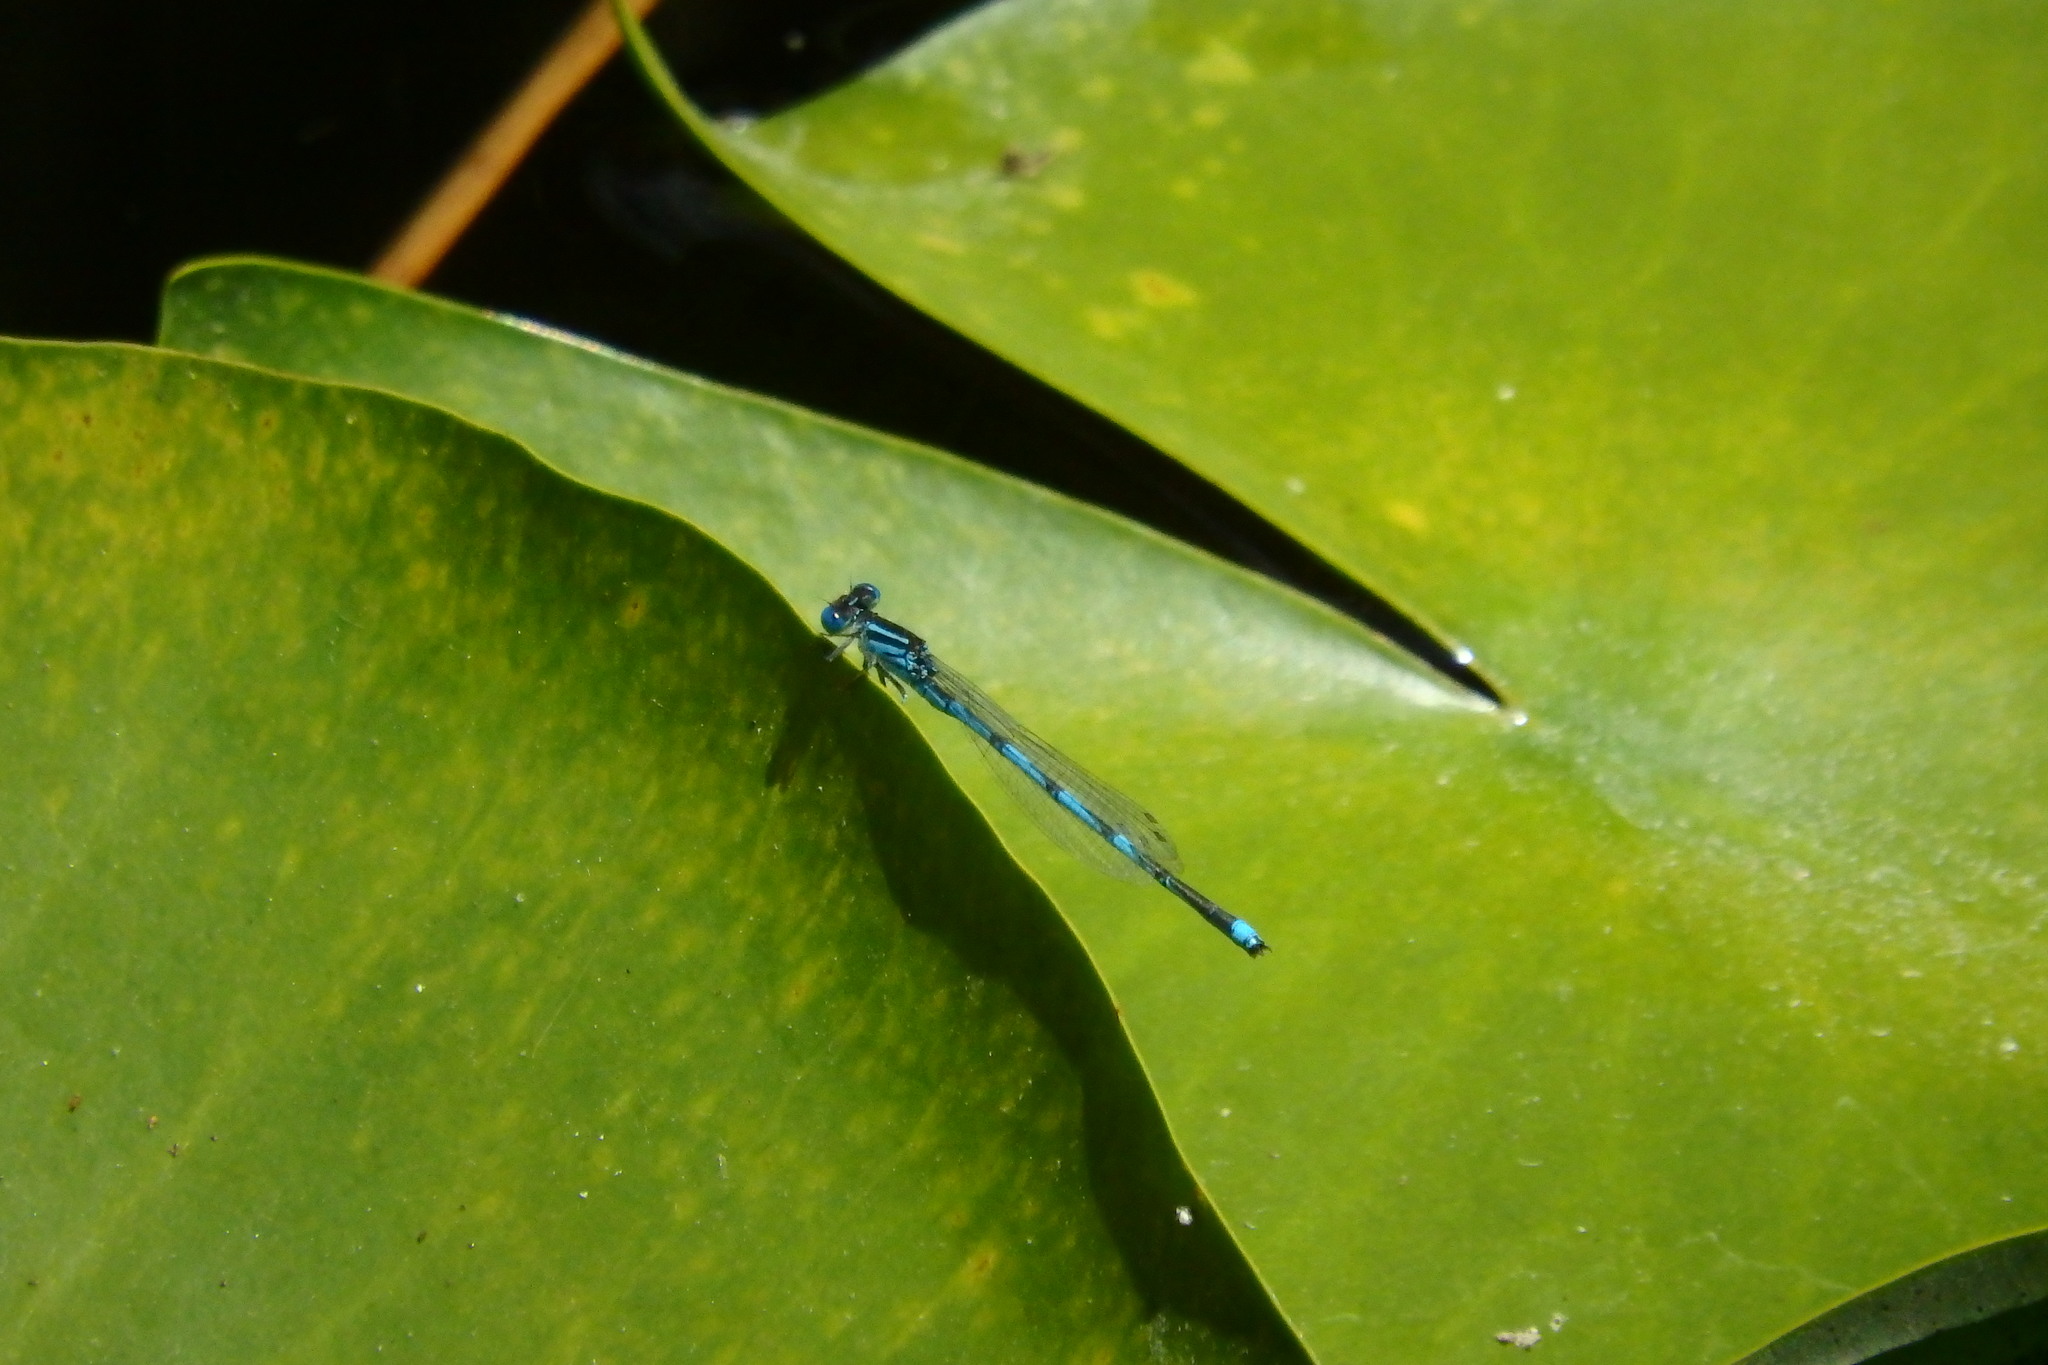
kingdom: Animalia
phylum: Arthropoda
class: Insecta
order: Odonata
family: Coenagrionidae
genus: Erythromma
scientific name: Erythromma lindenii
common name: Blue-eye
